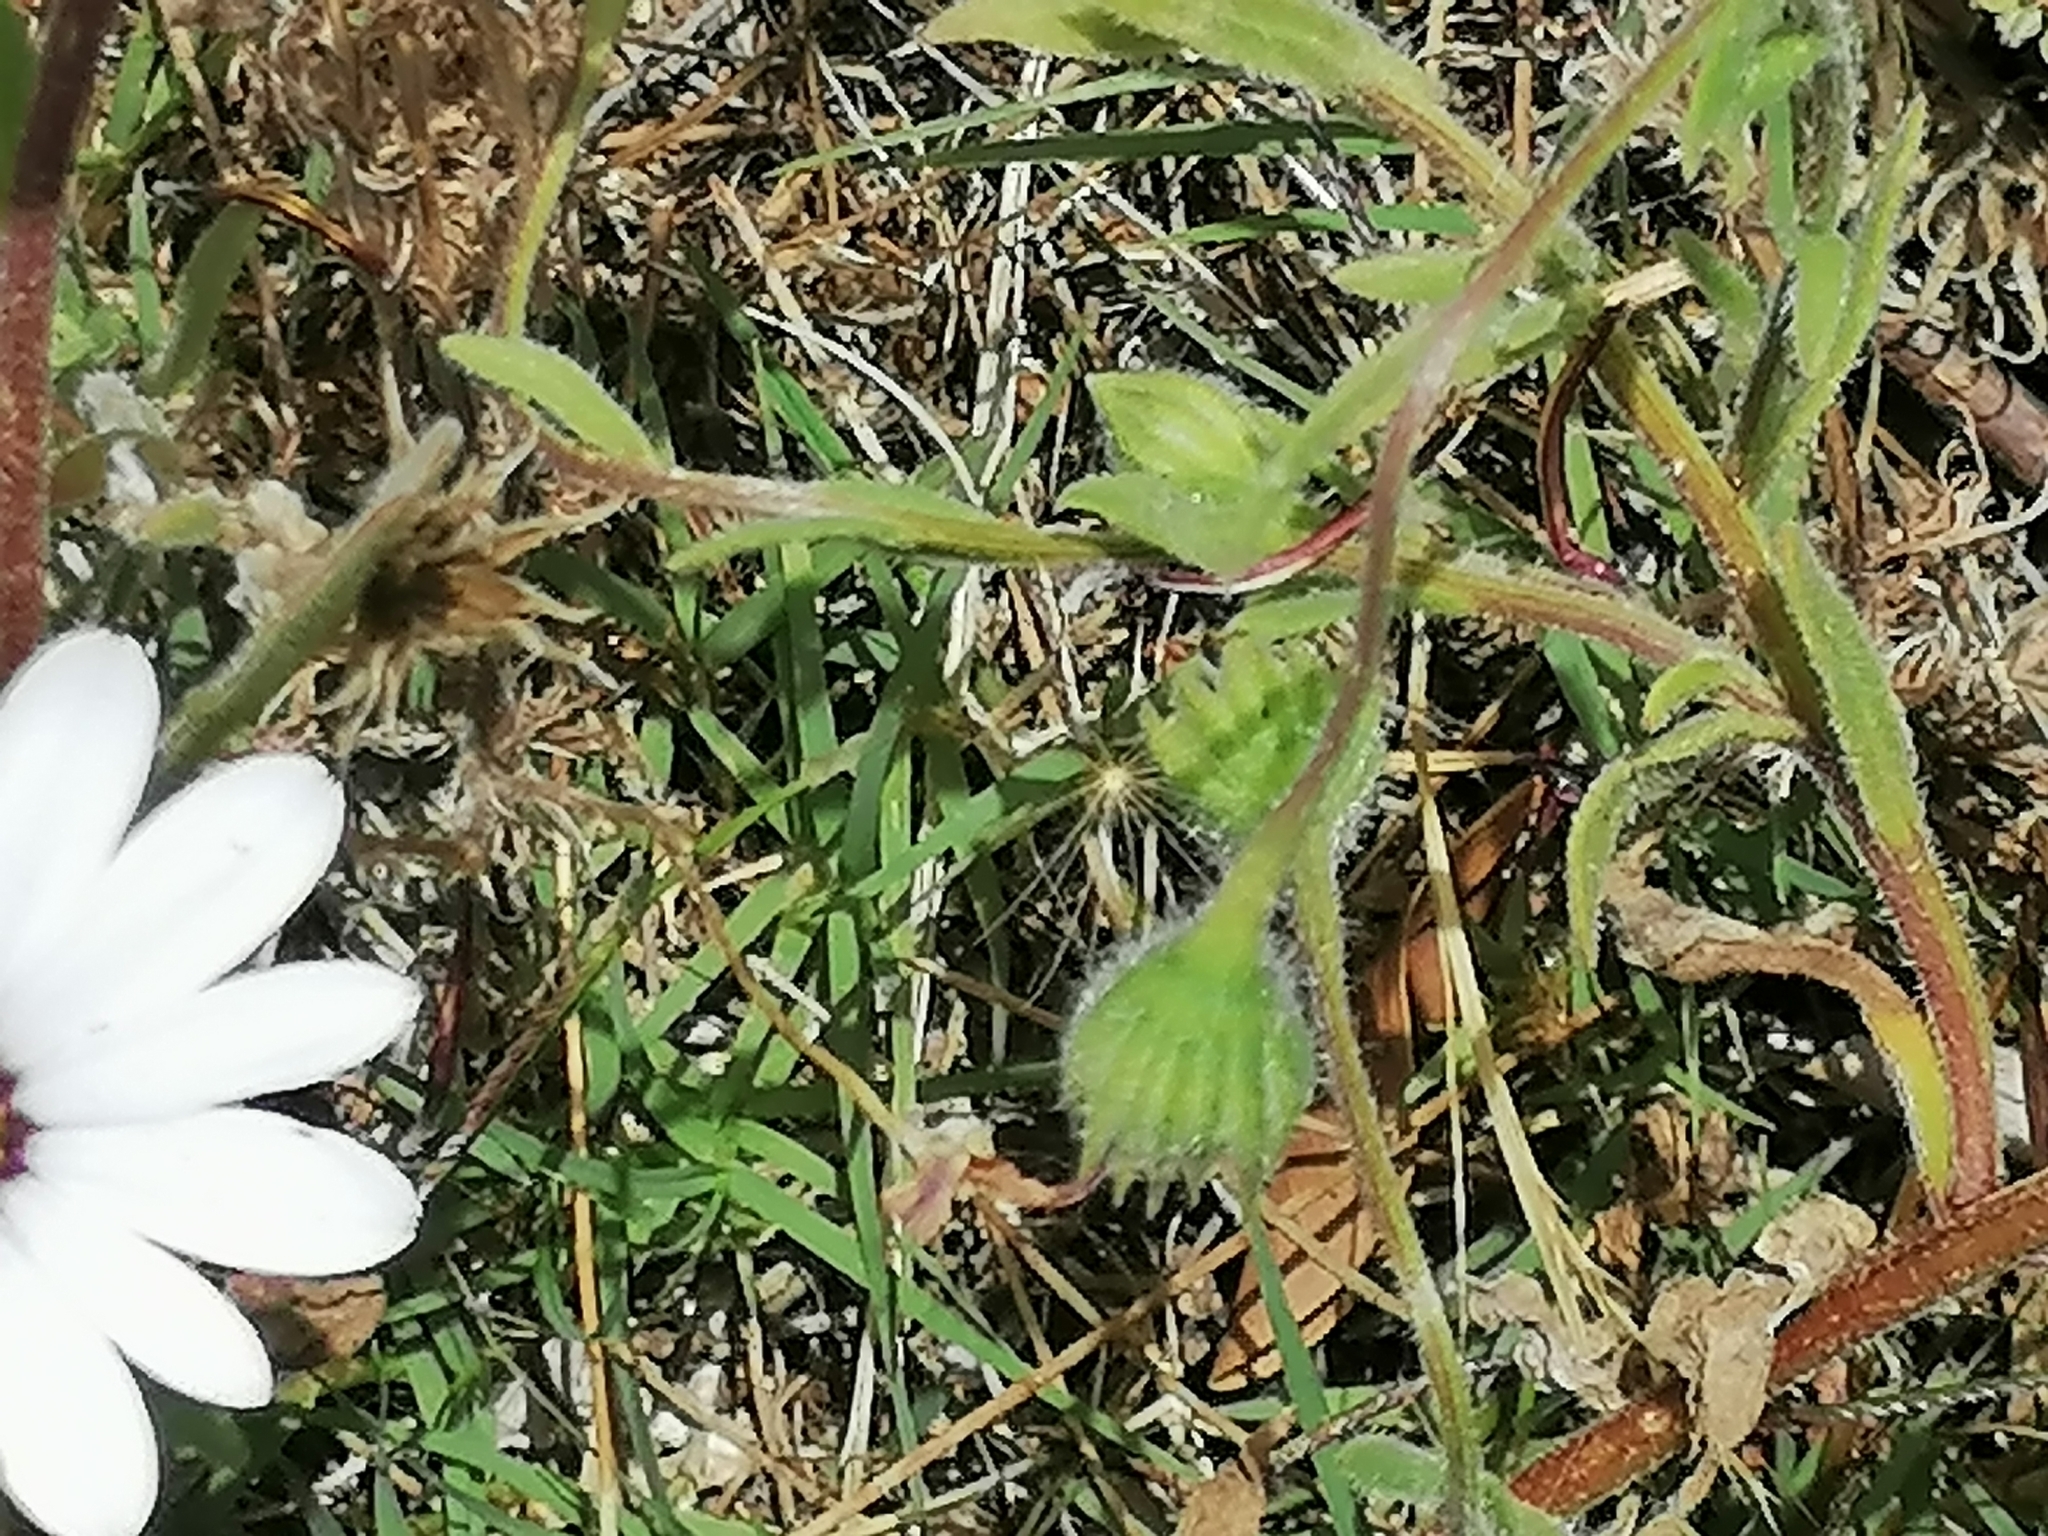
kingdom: Plantae
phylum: Tracheophyta
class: Magnoliopsida
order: Asterales
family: Asteraceae
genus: Dimorphotheca
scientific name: Dimorphotheca nudicaulis
